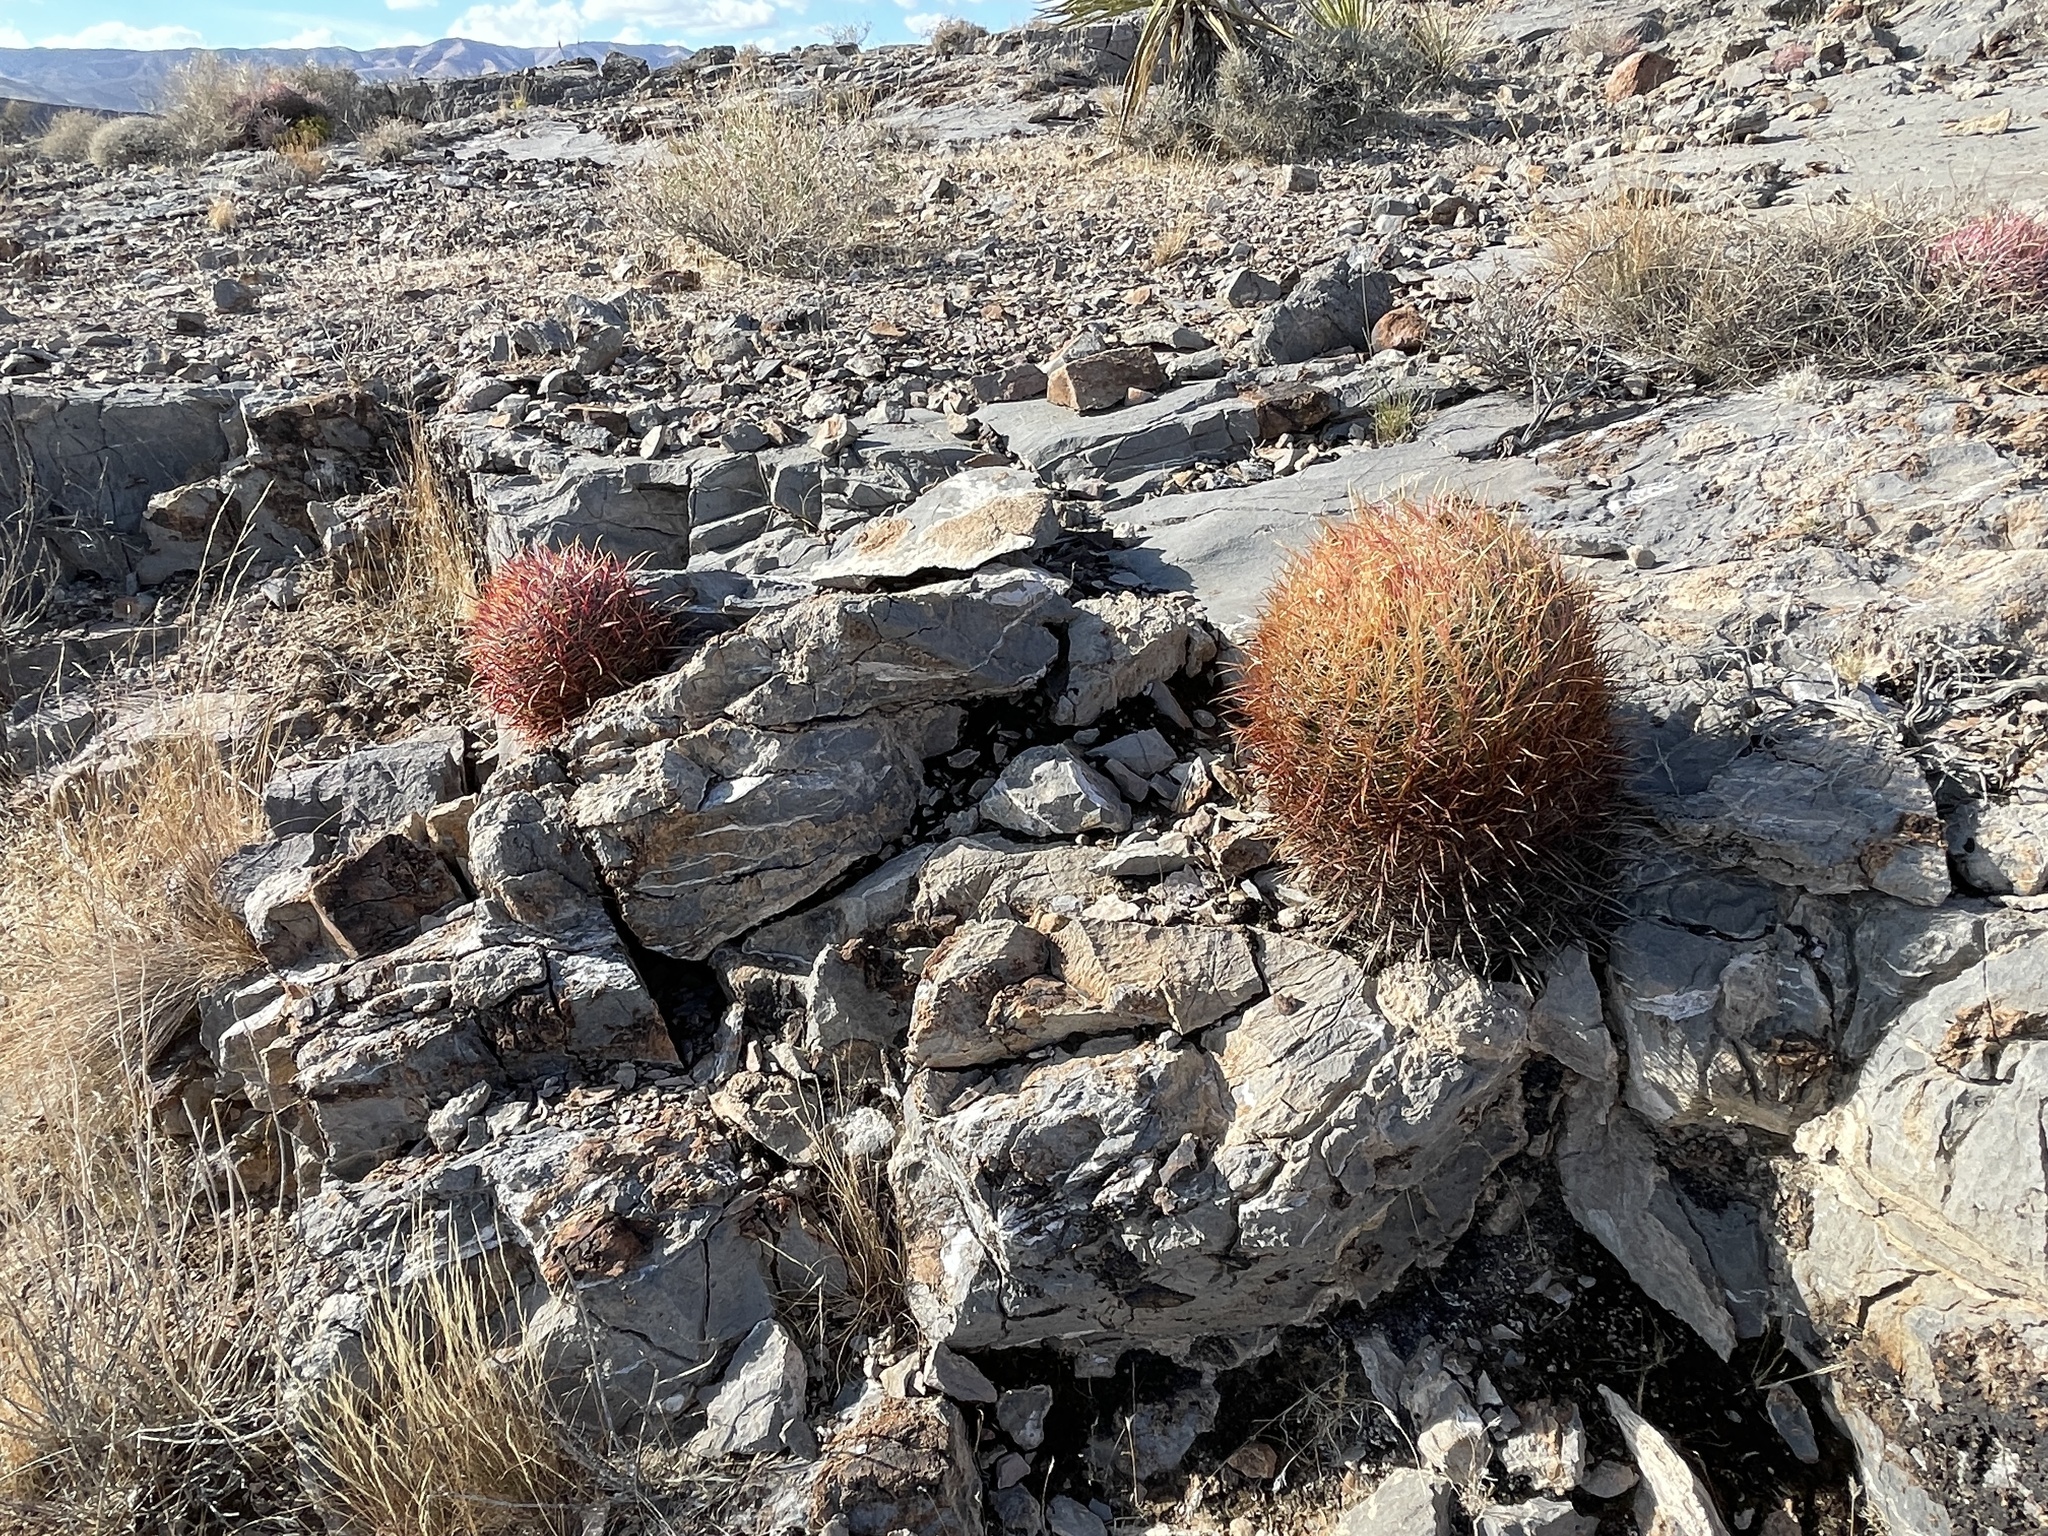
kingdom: Plantae
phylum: Tracheophyta
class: Magnoliopsida
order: Caryophyllales
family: Cactaceae
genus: Ferocactus
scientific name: Ferocactus cylindraceus
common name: California barrel cactus
